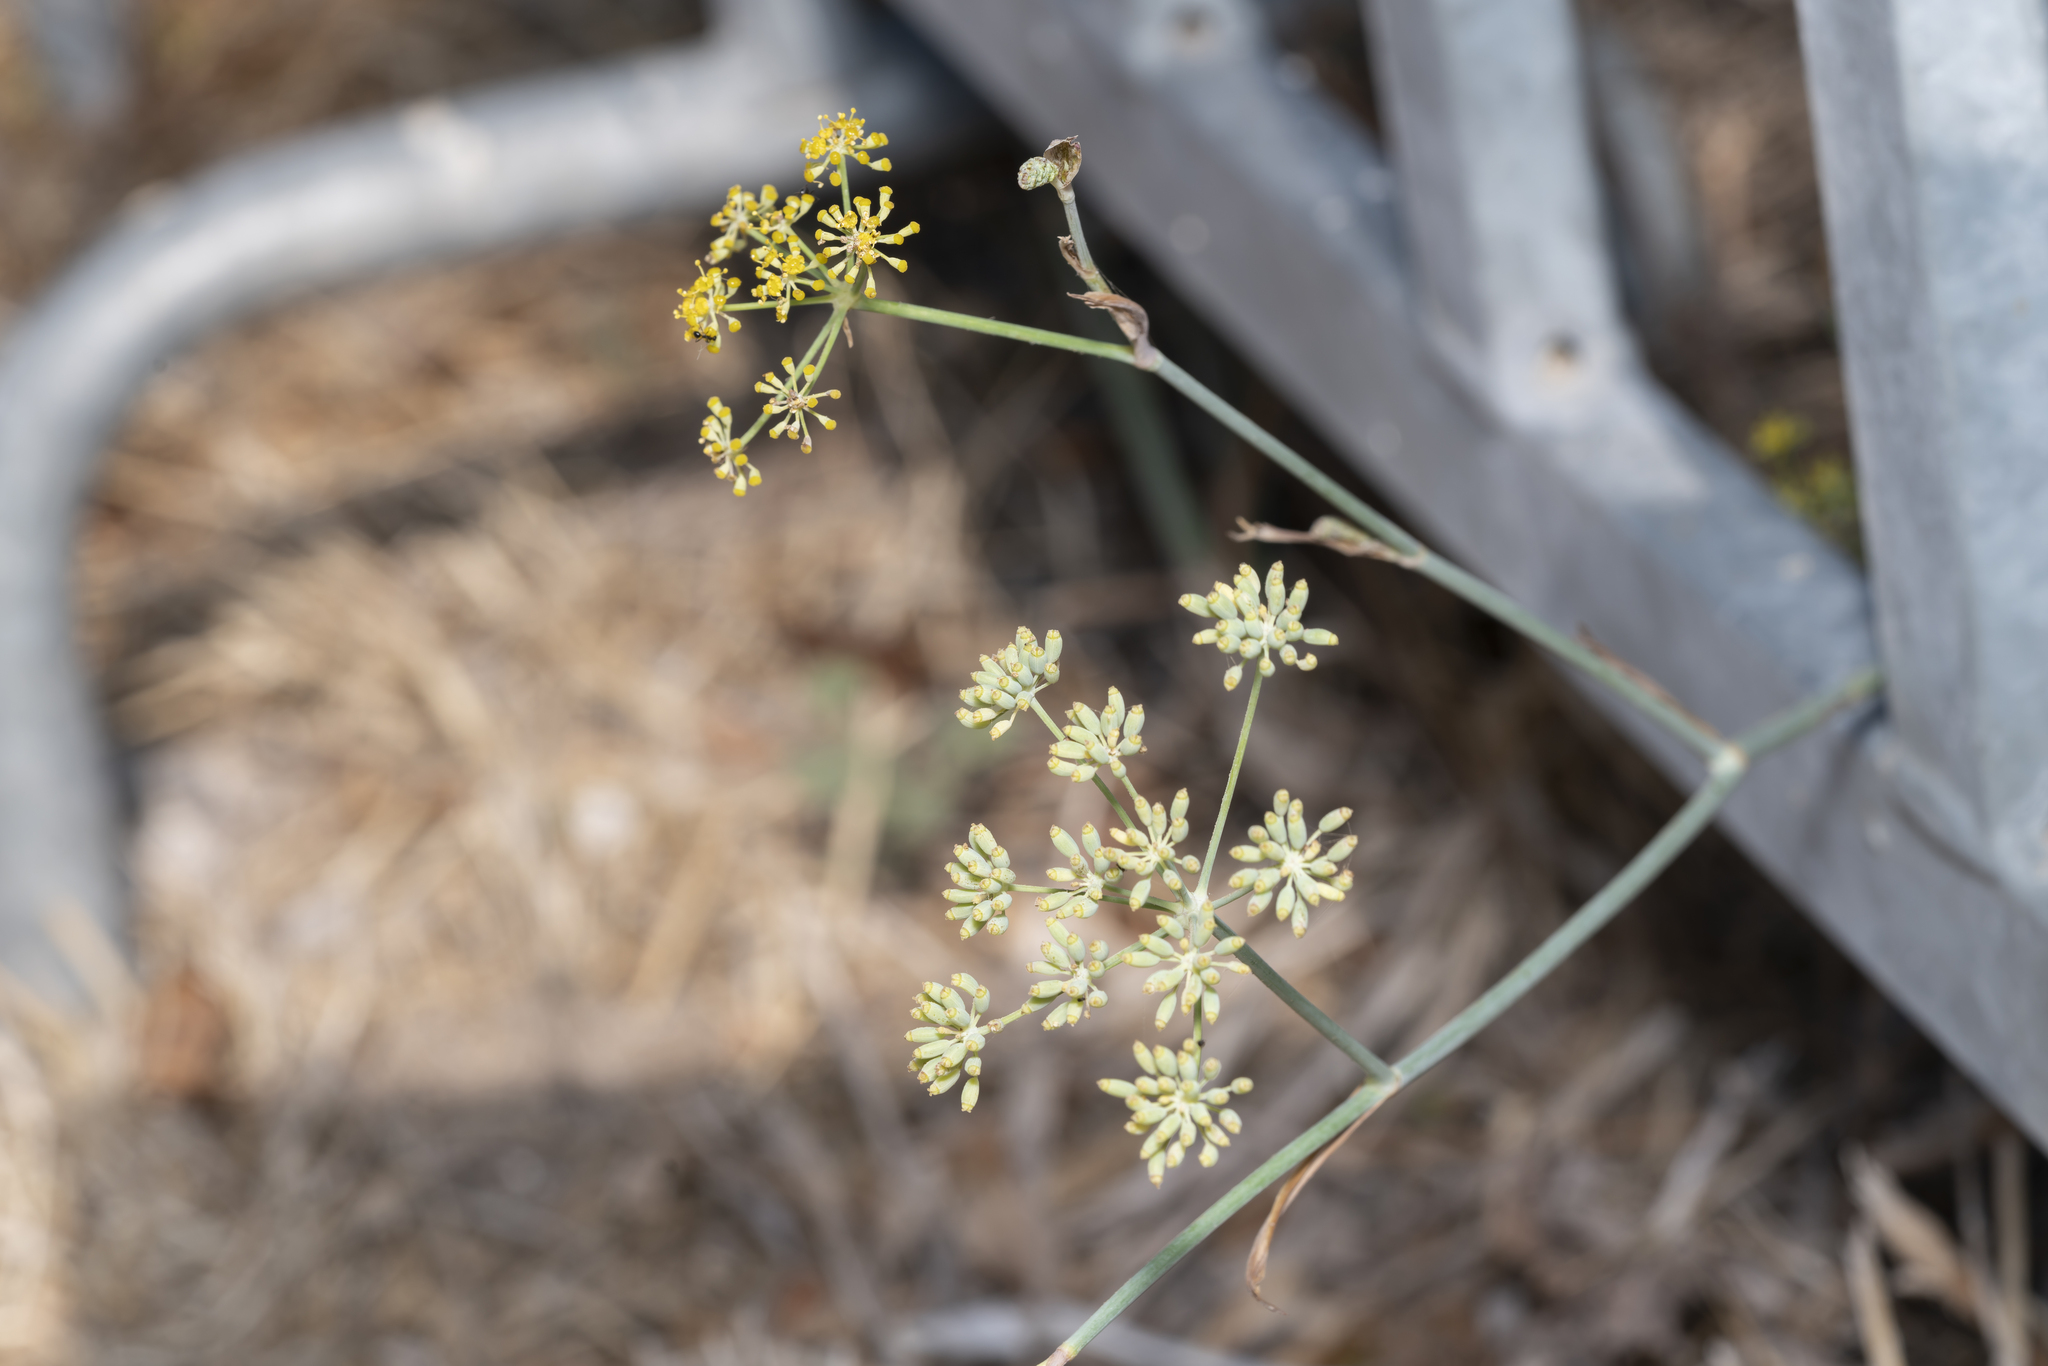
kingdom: Plantae
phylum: Tracheophyta
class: Magnoliopsida
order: Apiales
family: Apiaceae
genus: Foeniculum
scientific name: Foeniculum vulgare
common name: Fennel
